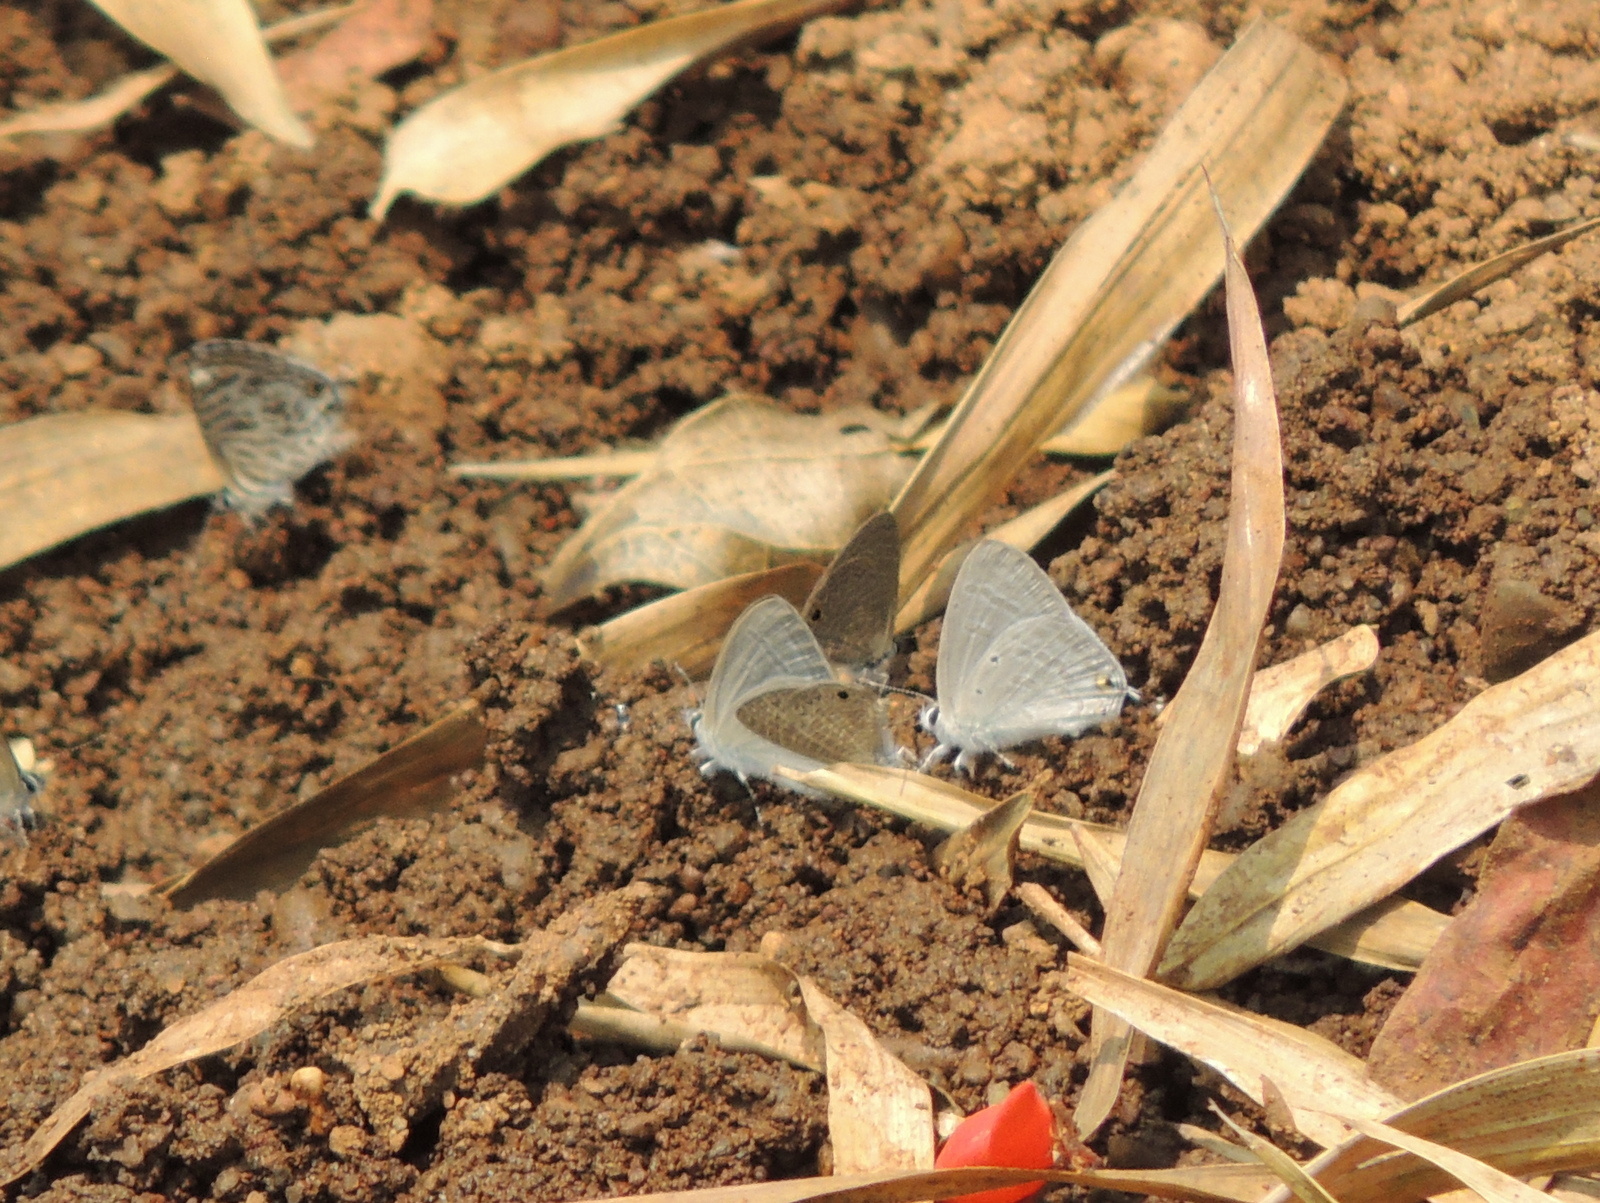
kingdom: Animalia
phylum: Arthropoda
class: Insecta
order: Lepidoptera
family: Lycaenidae
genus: Catochrysops
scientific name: Catochrysops strabo
